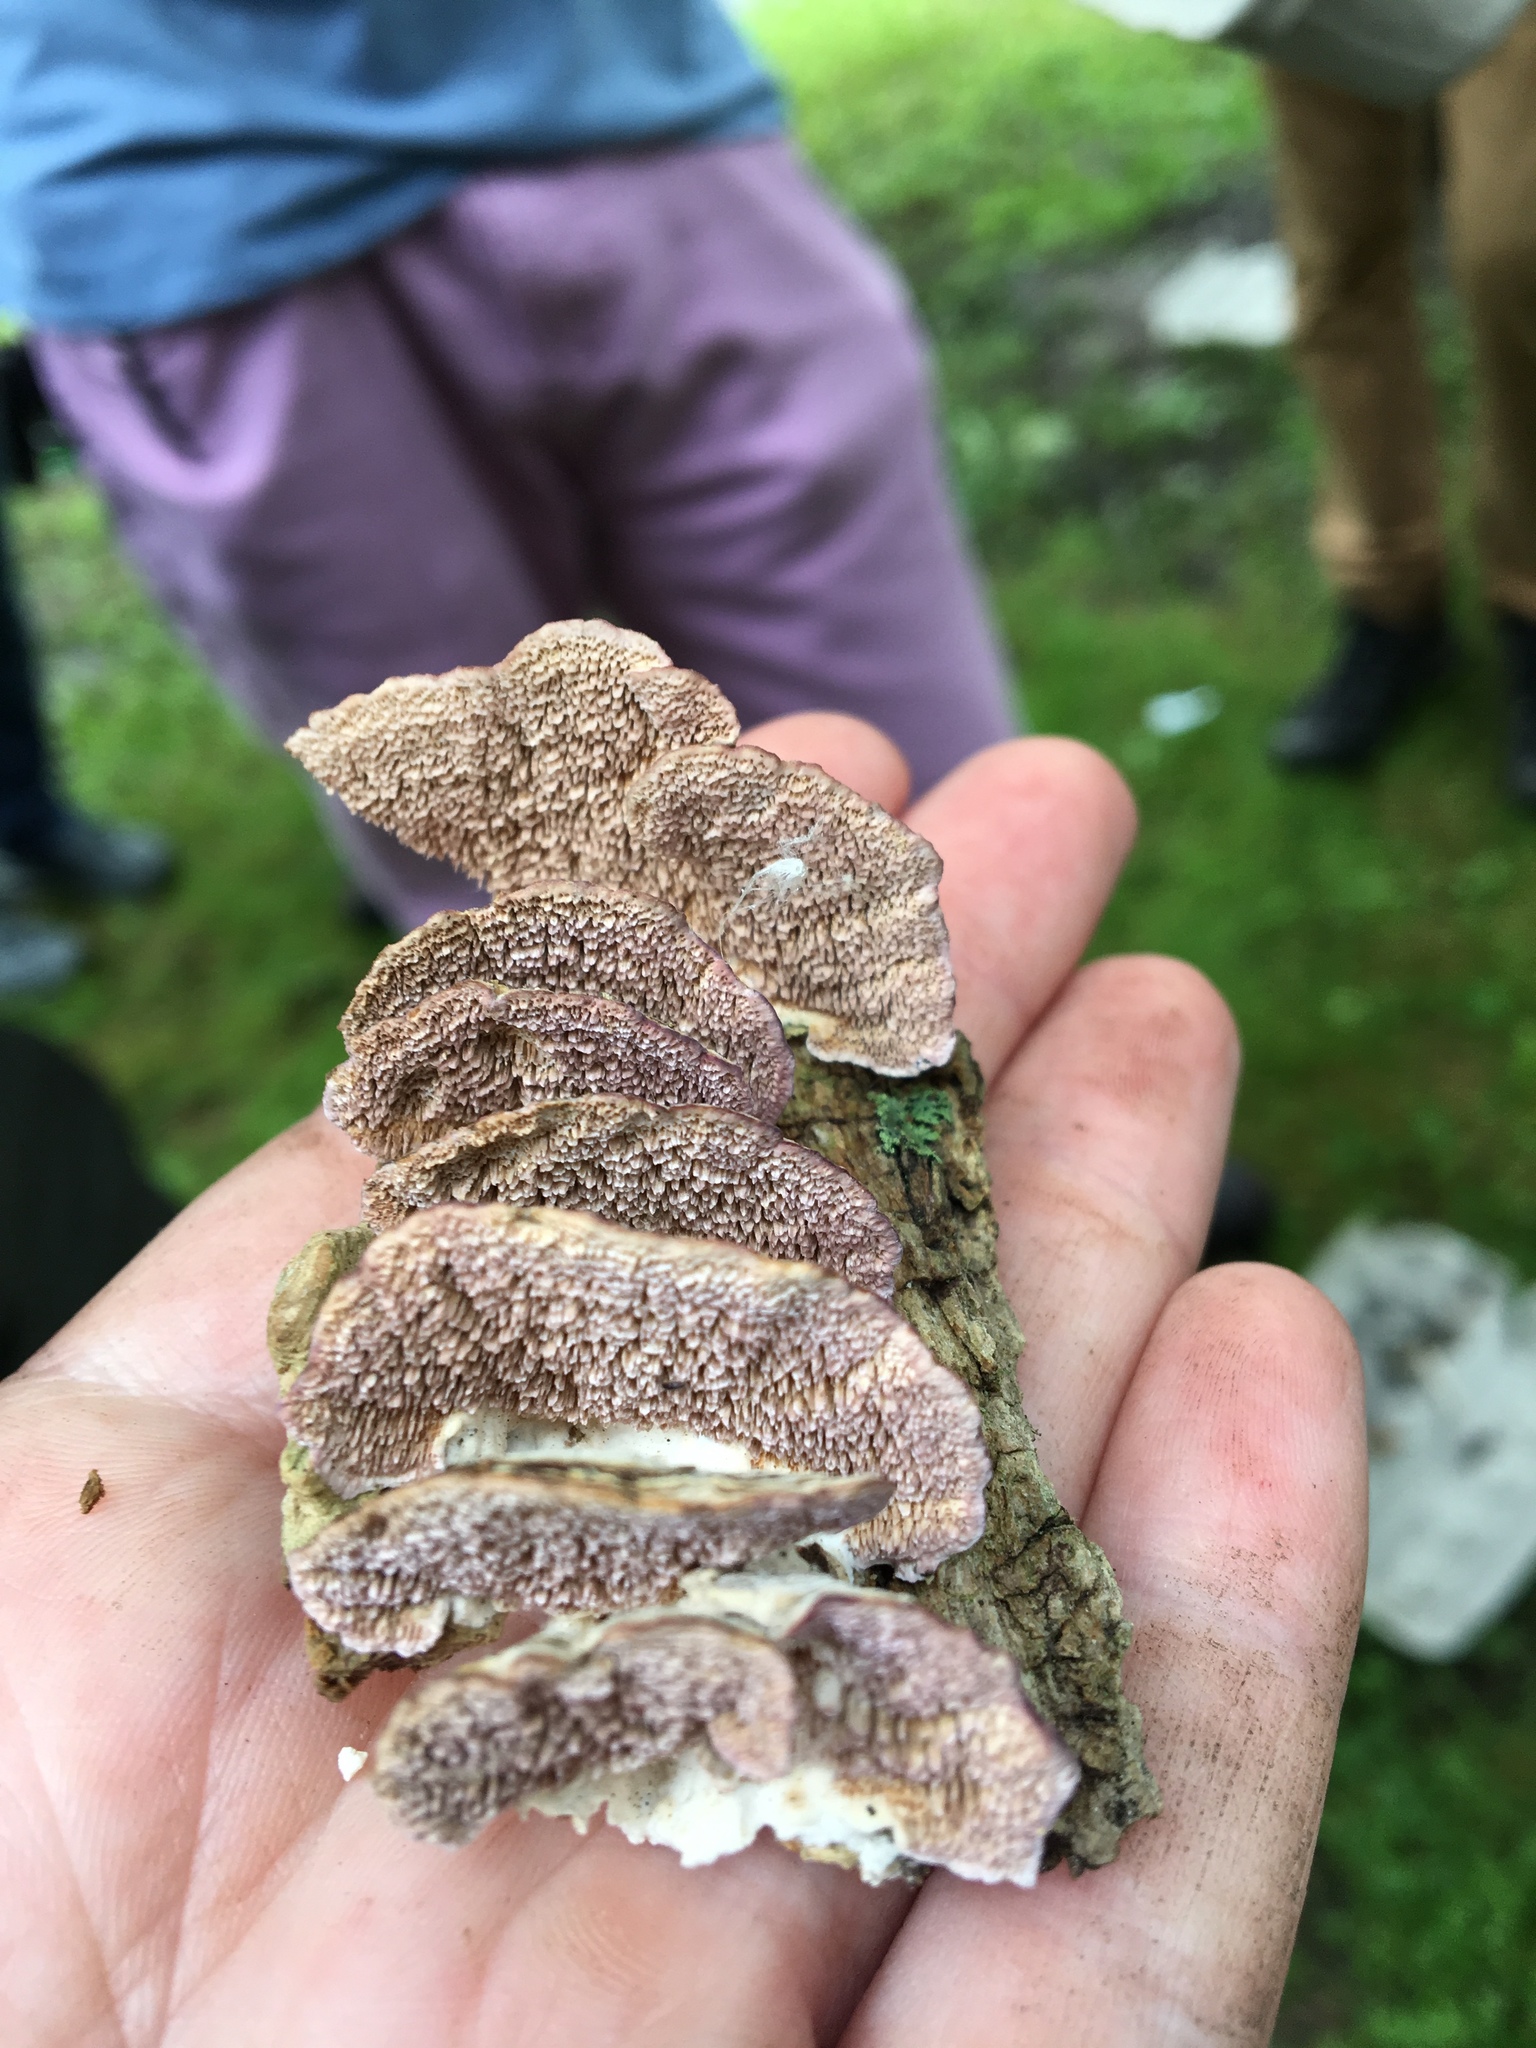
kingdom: Fungi
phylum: Basidiomycota
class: Agaricomycetes
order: Hymenochaetales
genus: Trichaptum
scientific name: Trichaptum biforme
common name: Violet-toothed polypore
